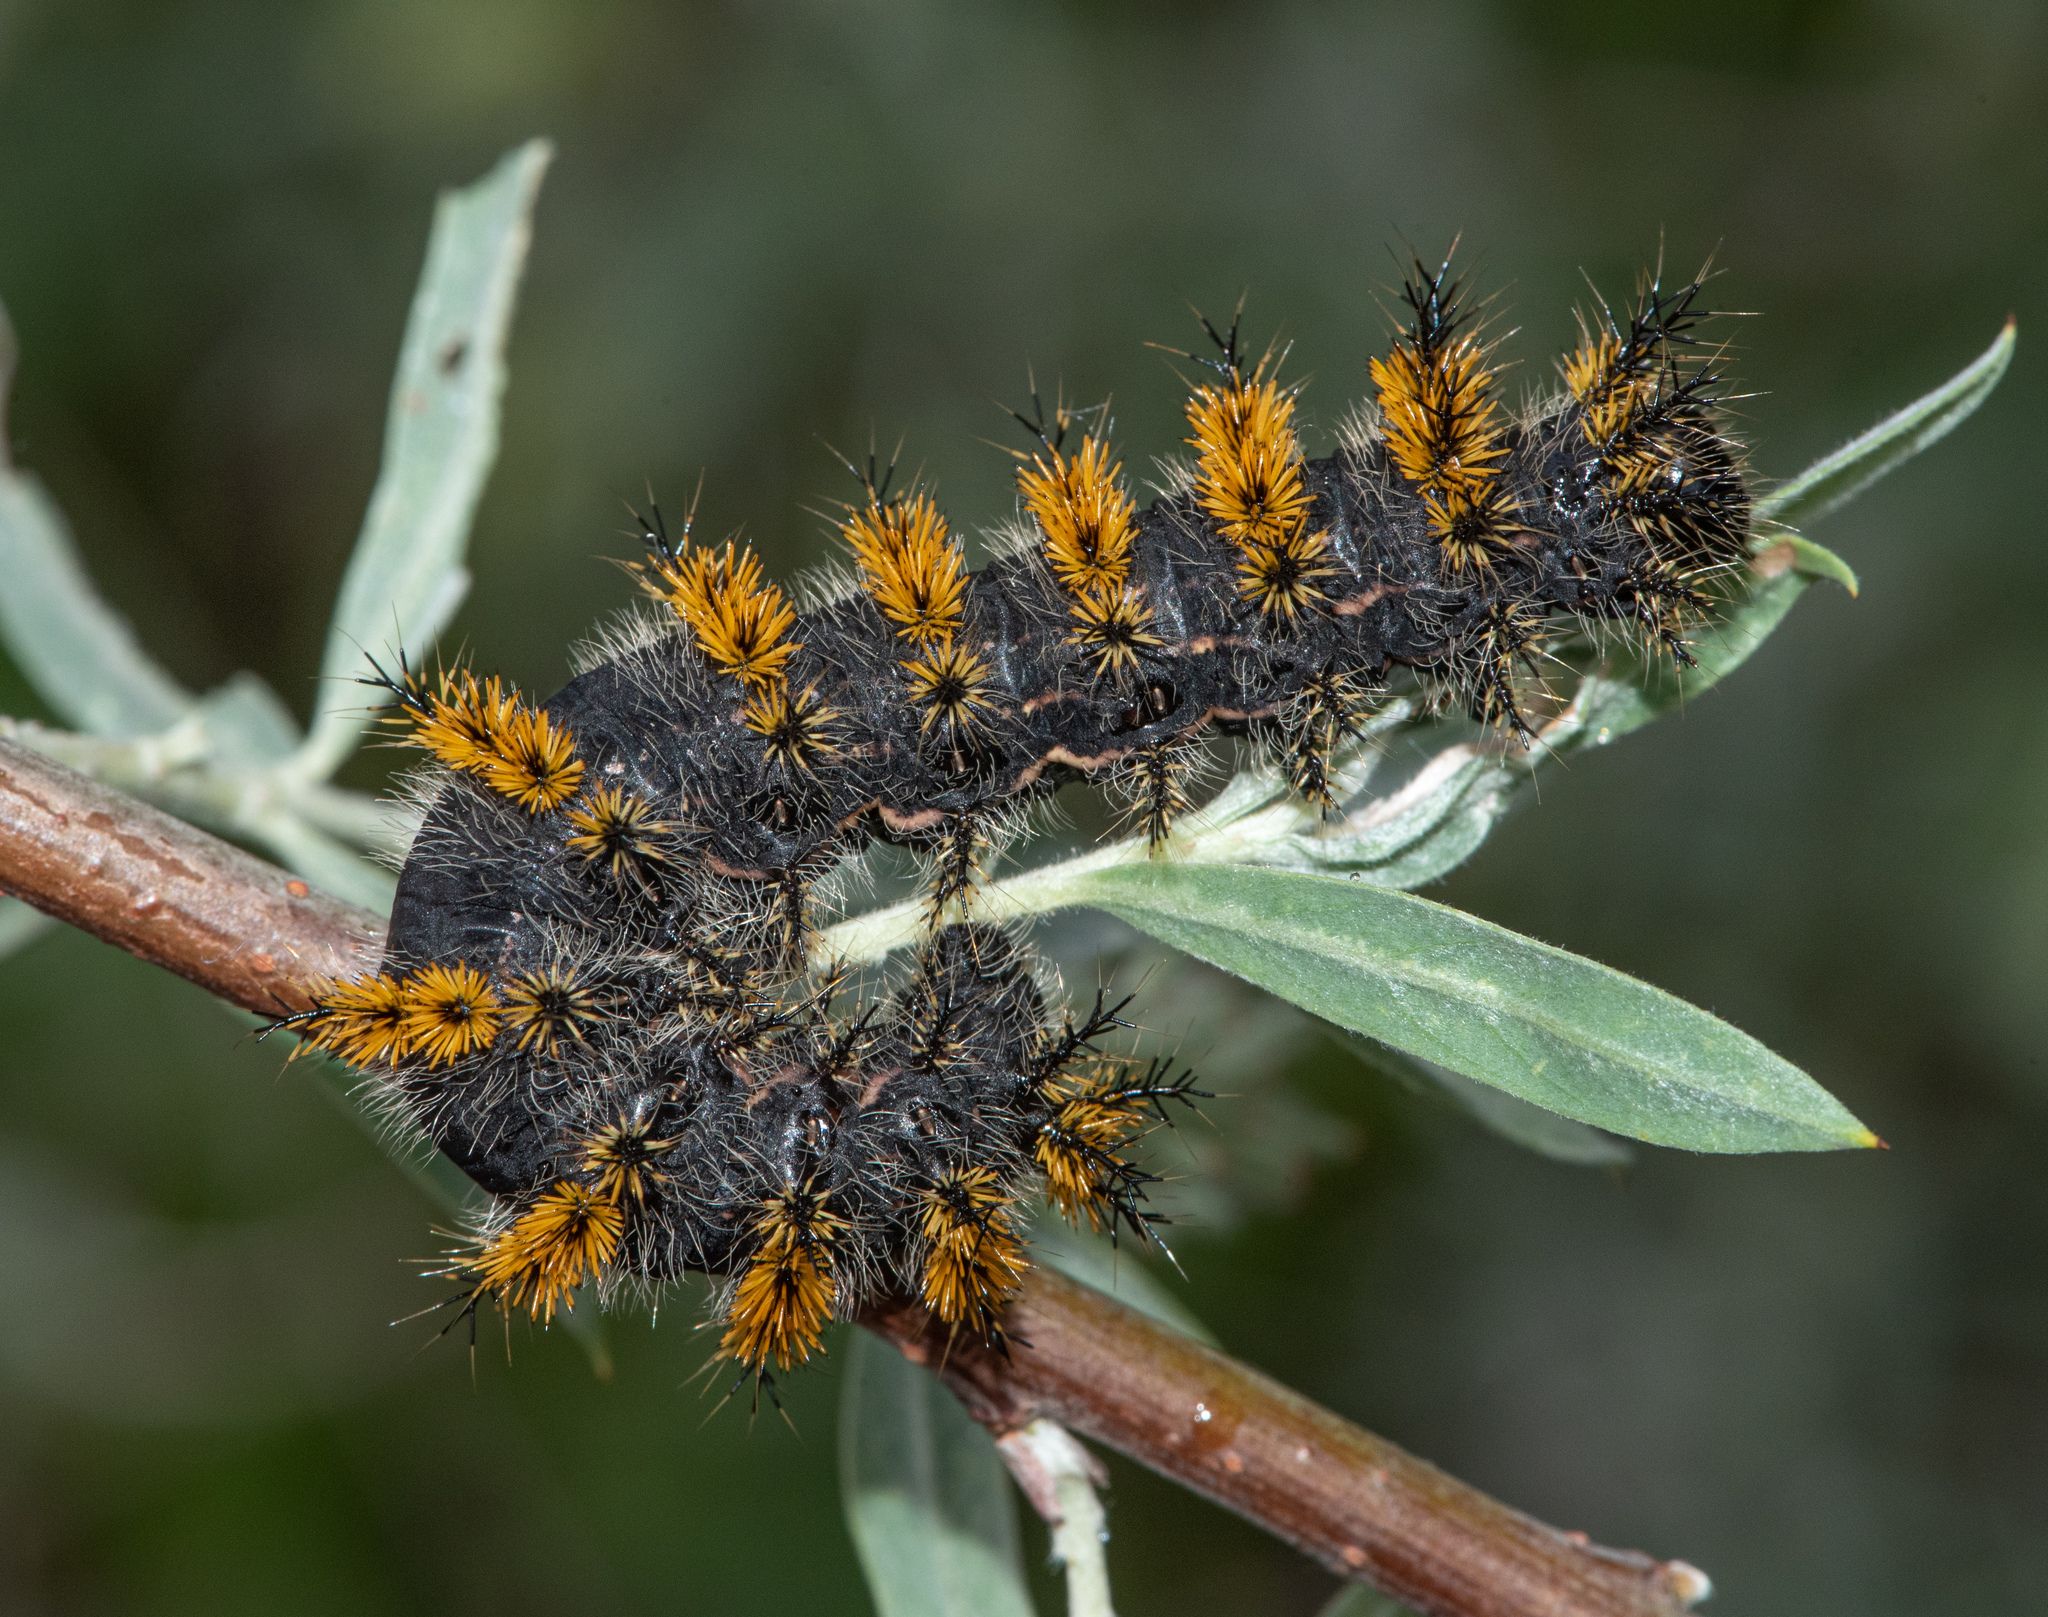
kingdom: Animalia
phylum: Arthropoda
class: Insecta
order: Lepidoptera
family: Saturniidae
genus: Hemileuca
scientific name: Hemileuca eglanterina
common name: Western sheepmoth
